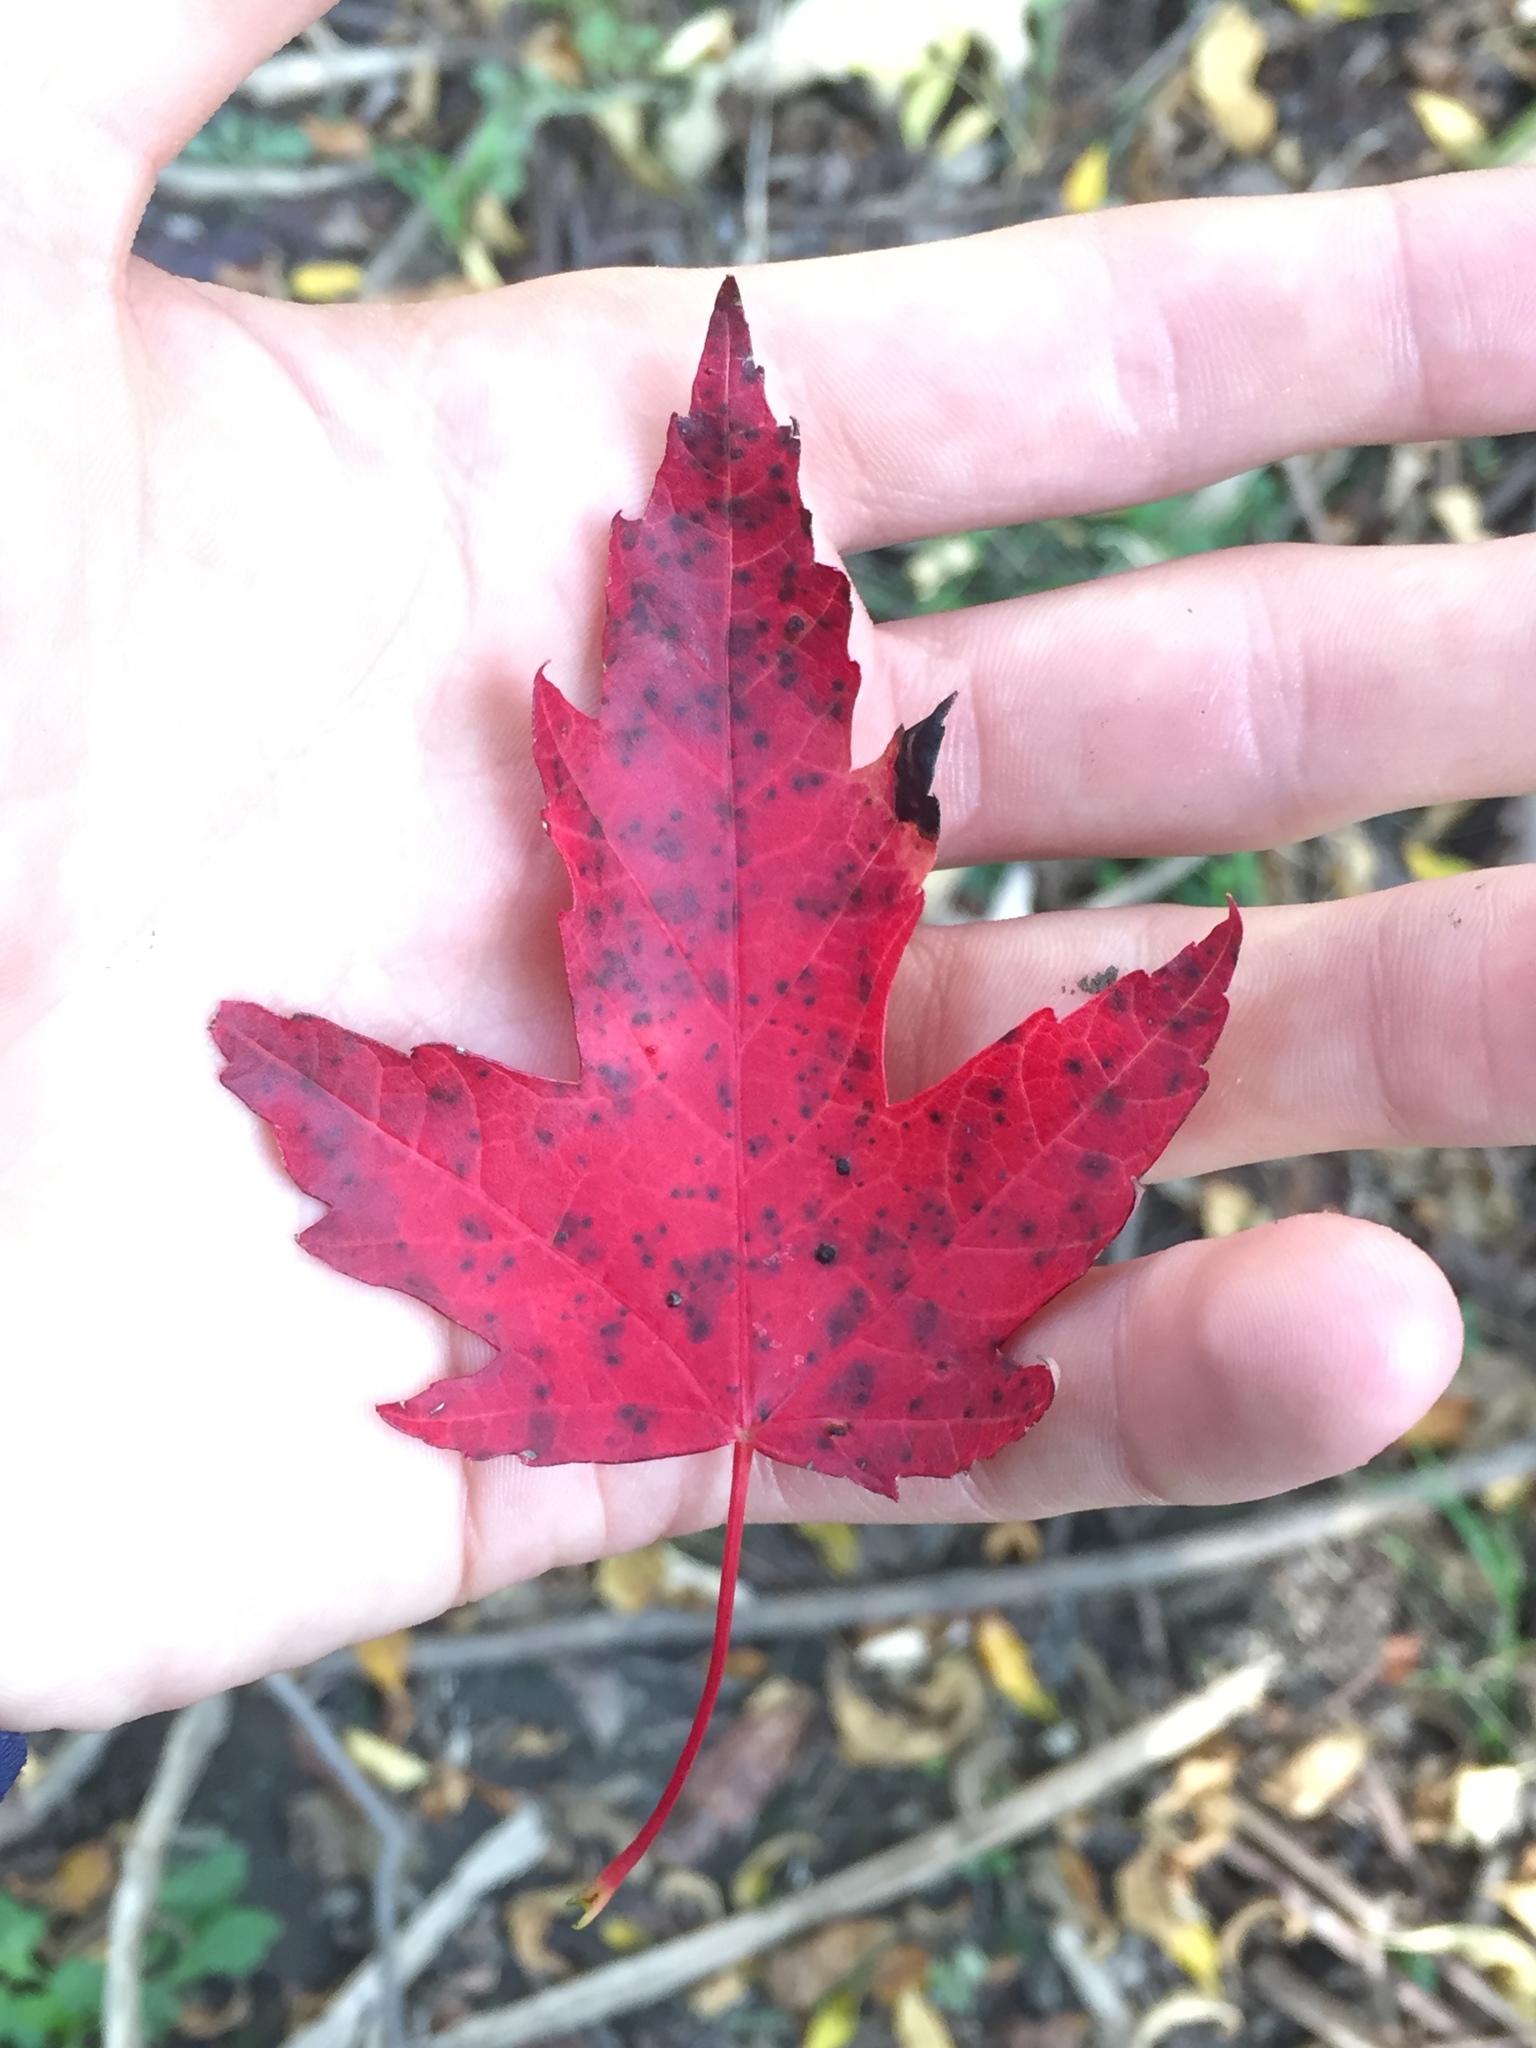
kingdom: Plantae
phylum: Tracheophyta
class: Magnoliopsida
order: Sapindales
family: Sapindaceae
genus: Acer
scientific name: Acer rubrum
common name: Red maple
